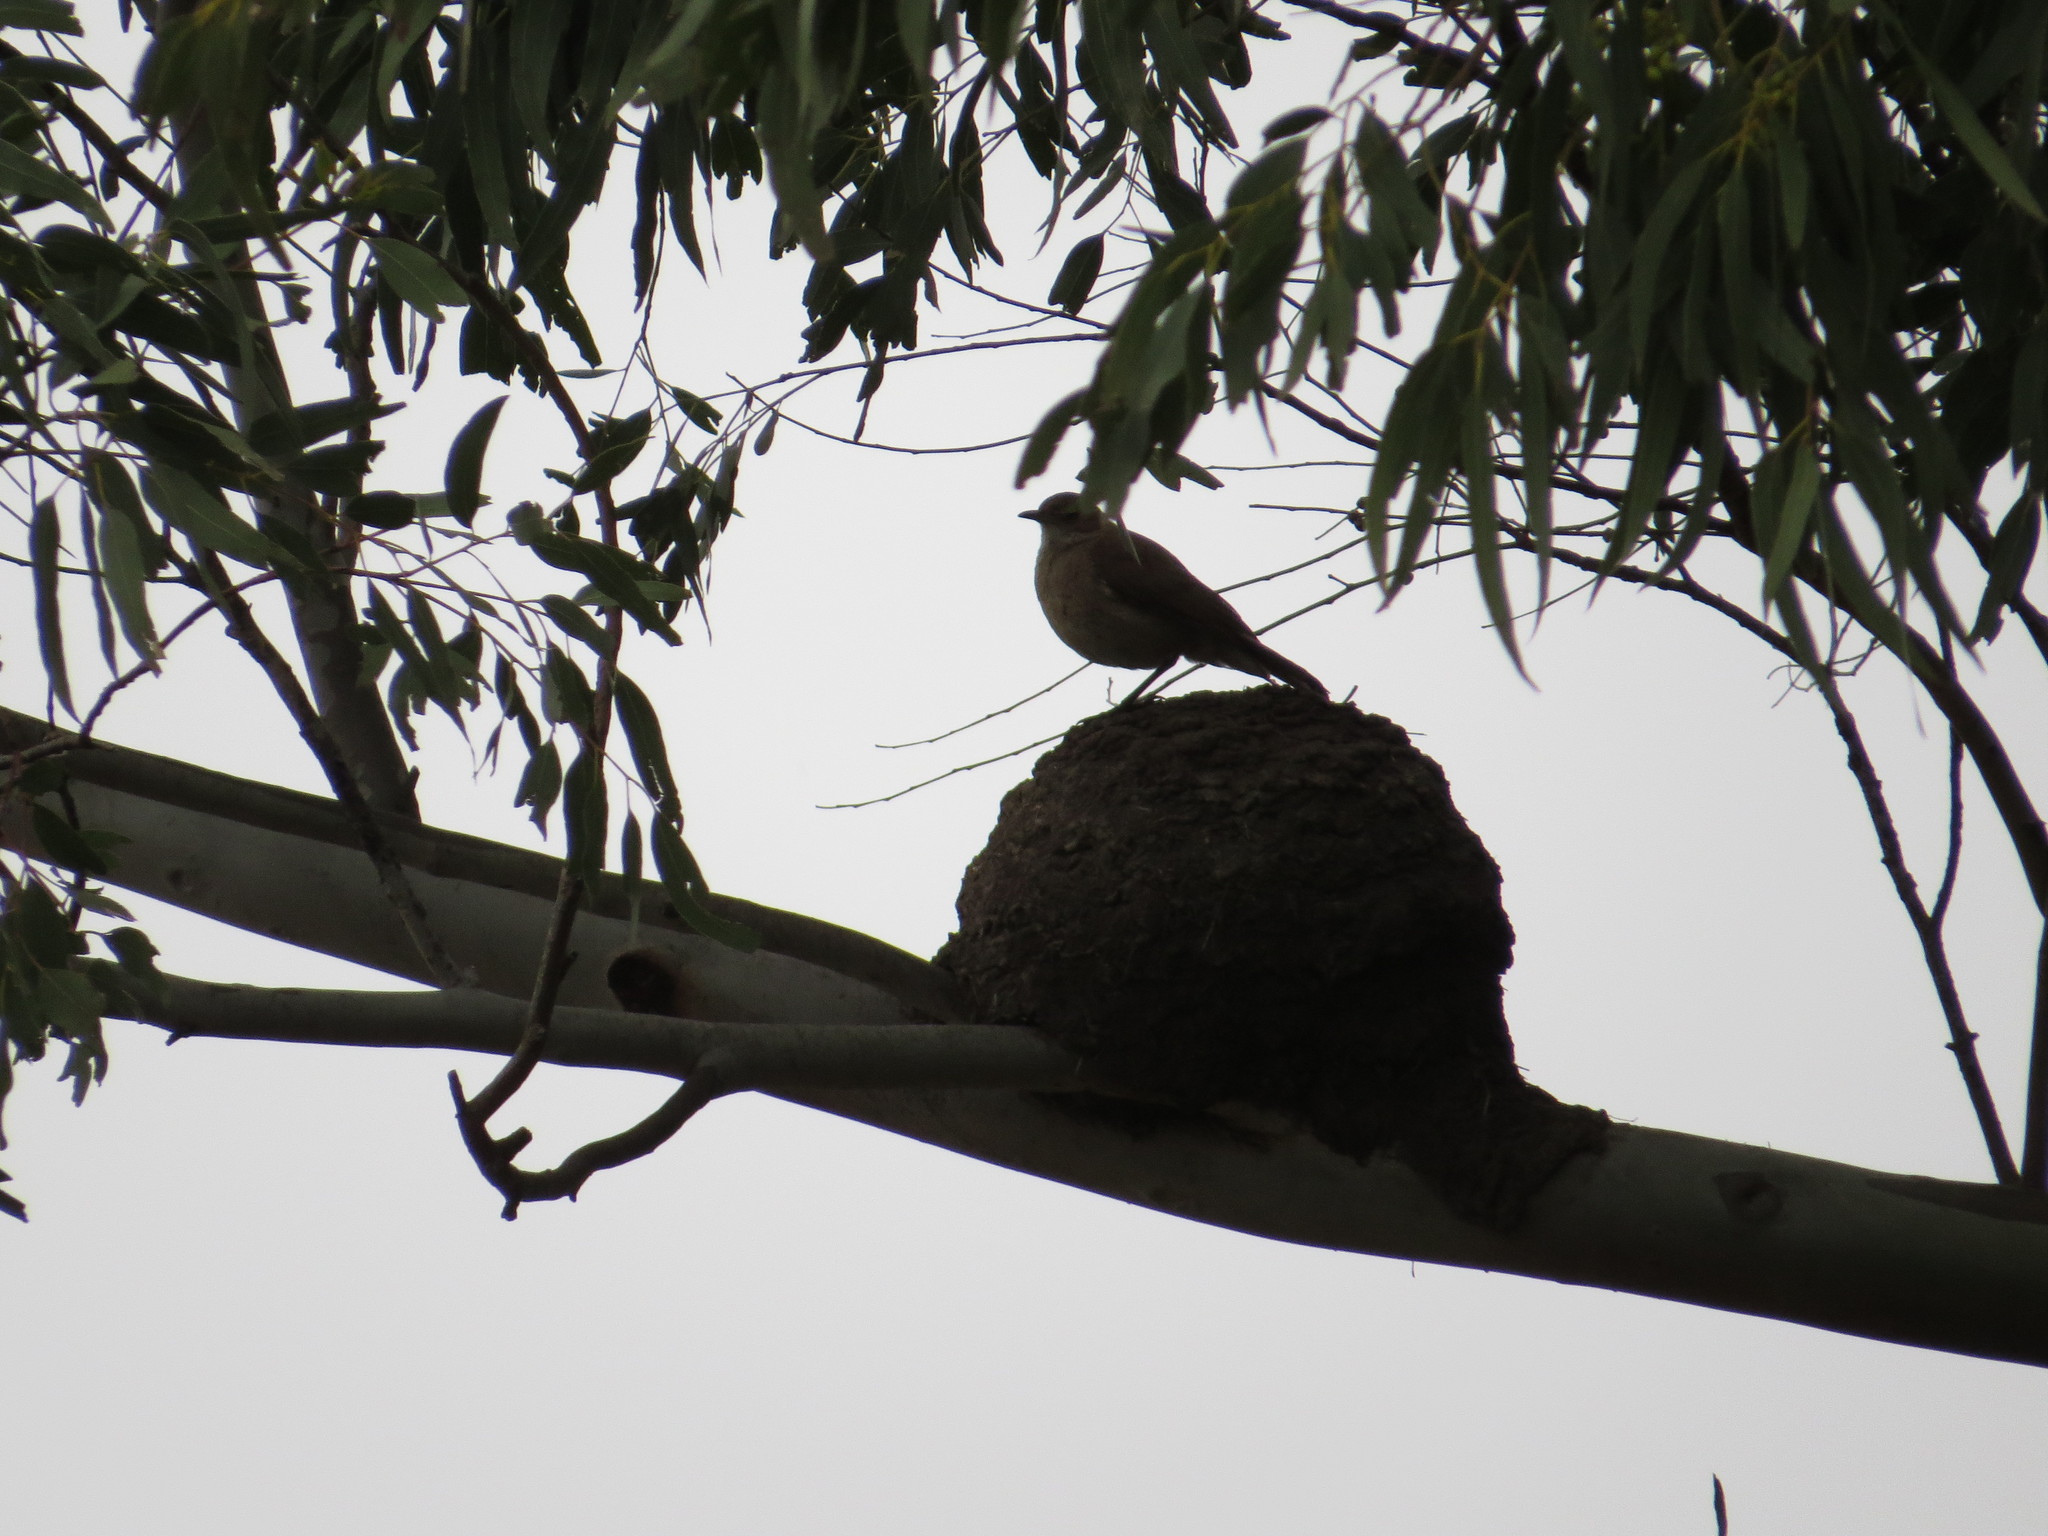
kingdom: Animalia
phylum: Chordata
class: Aves
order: Passeriformes
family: Furnariidae
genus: Furnarius
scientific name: Furnarius rufus
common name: Rufous hornero
